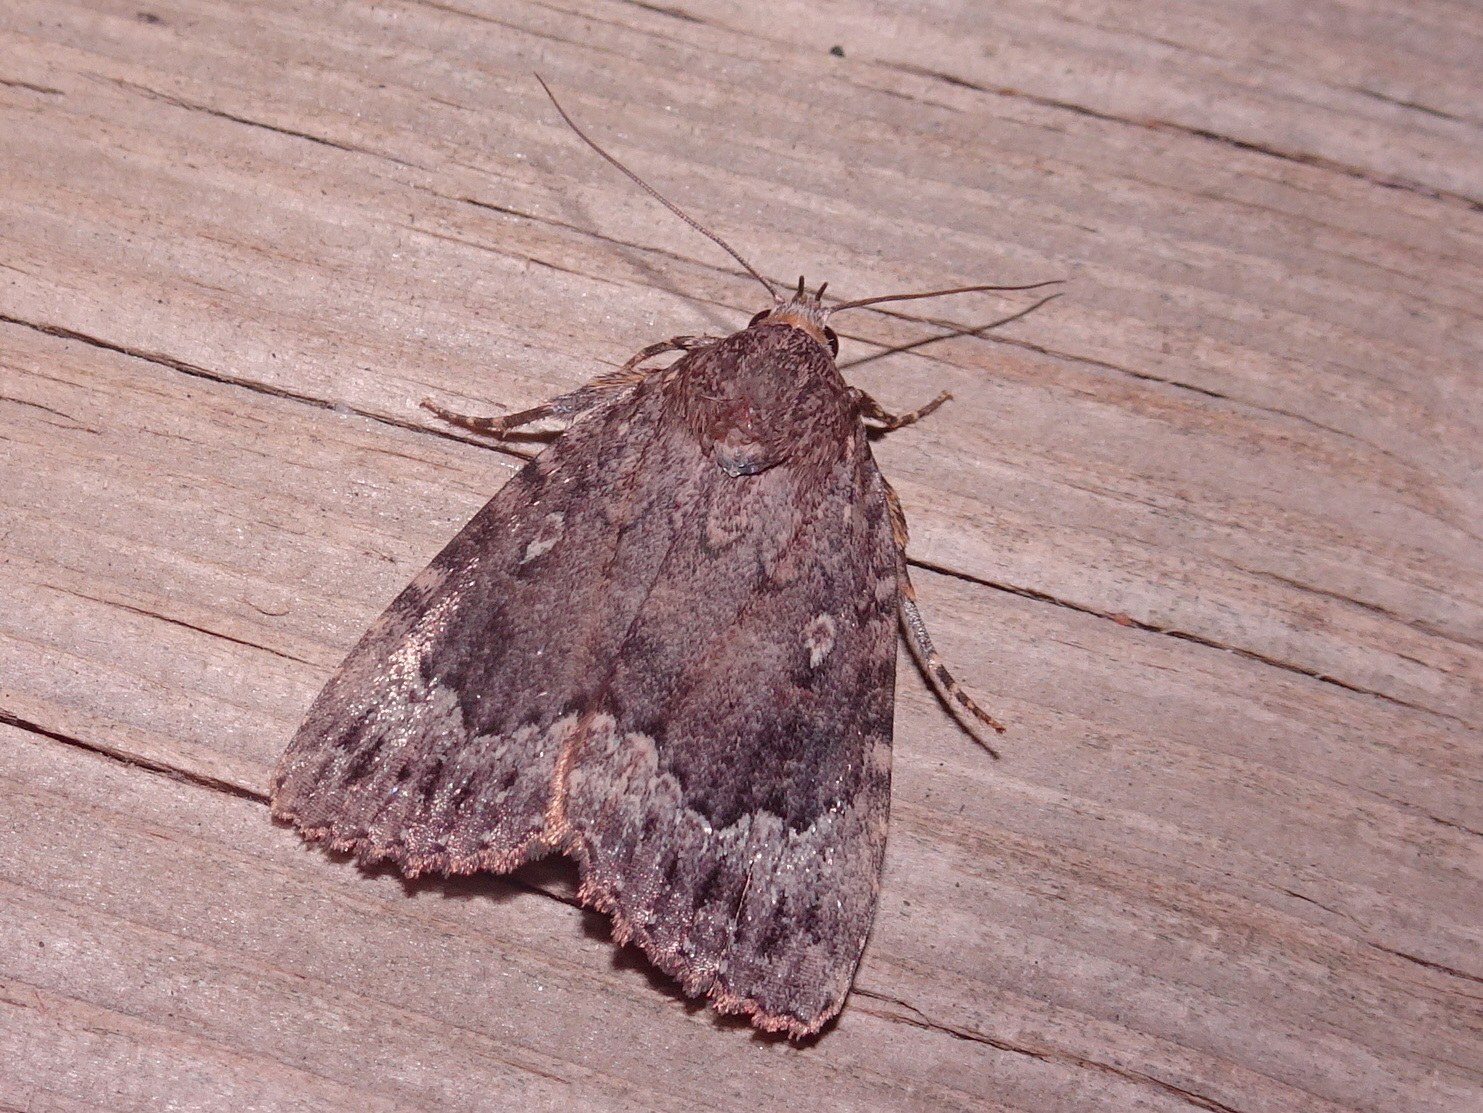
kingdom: Animalia
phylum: Arthropoda
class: Insecta
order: Lepidoptera
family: Noctuidae
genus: Amphipyra
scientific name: Amphipyra pyramidoides
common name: American copper underwing
